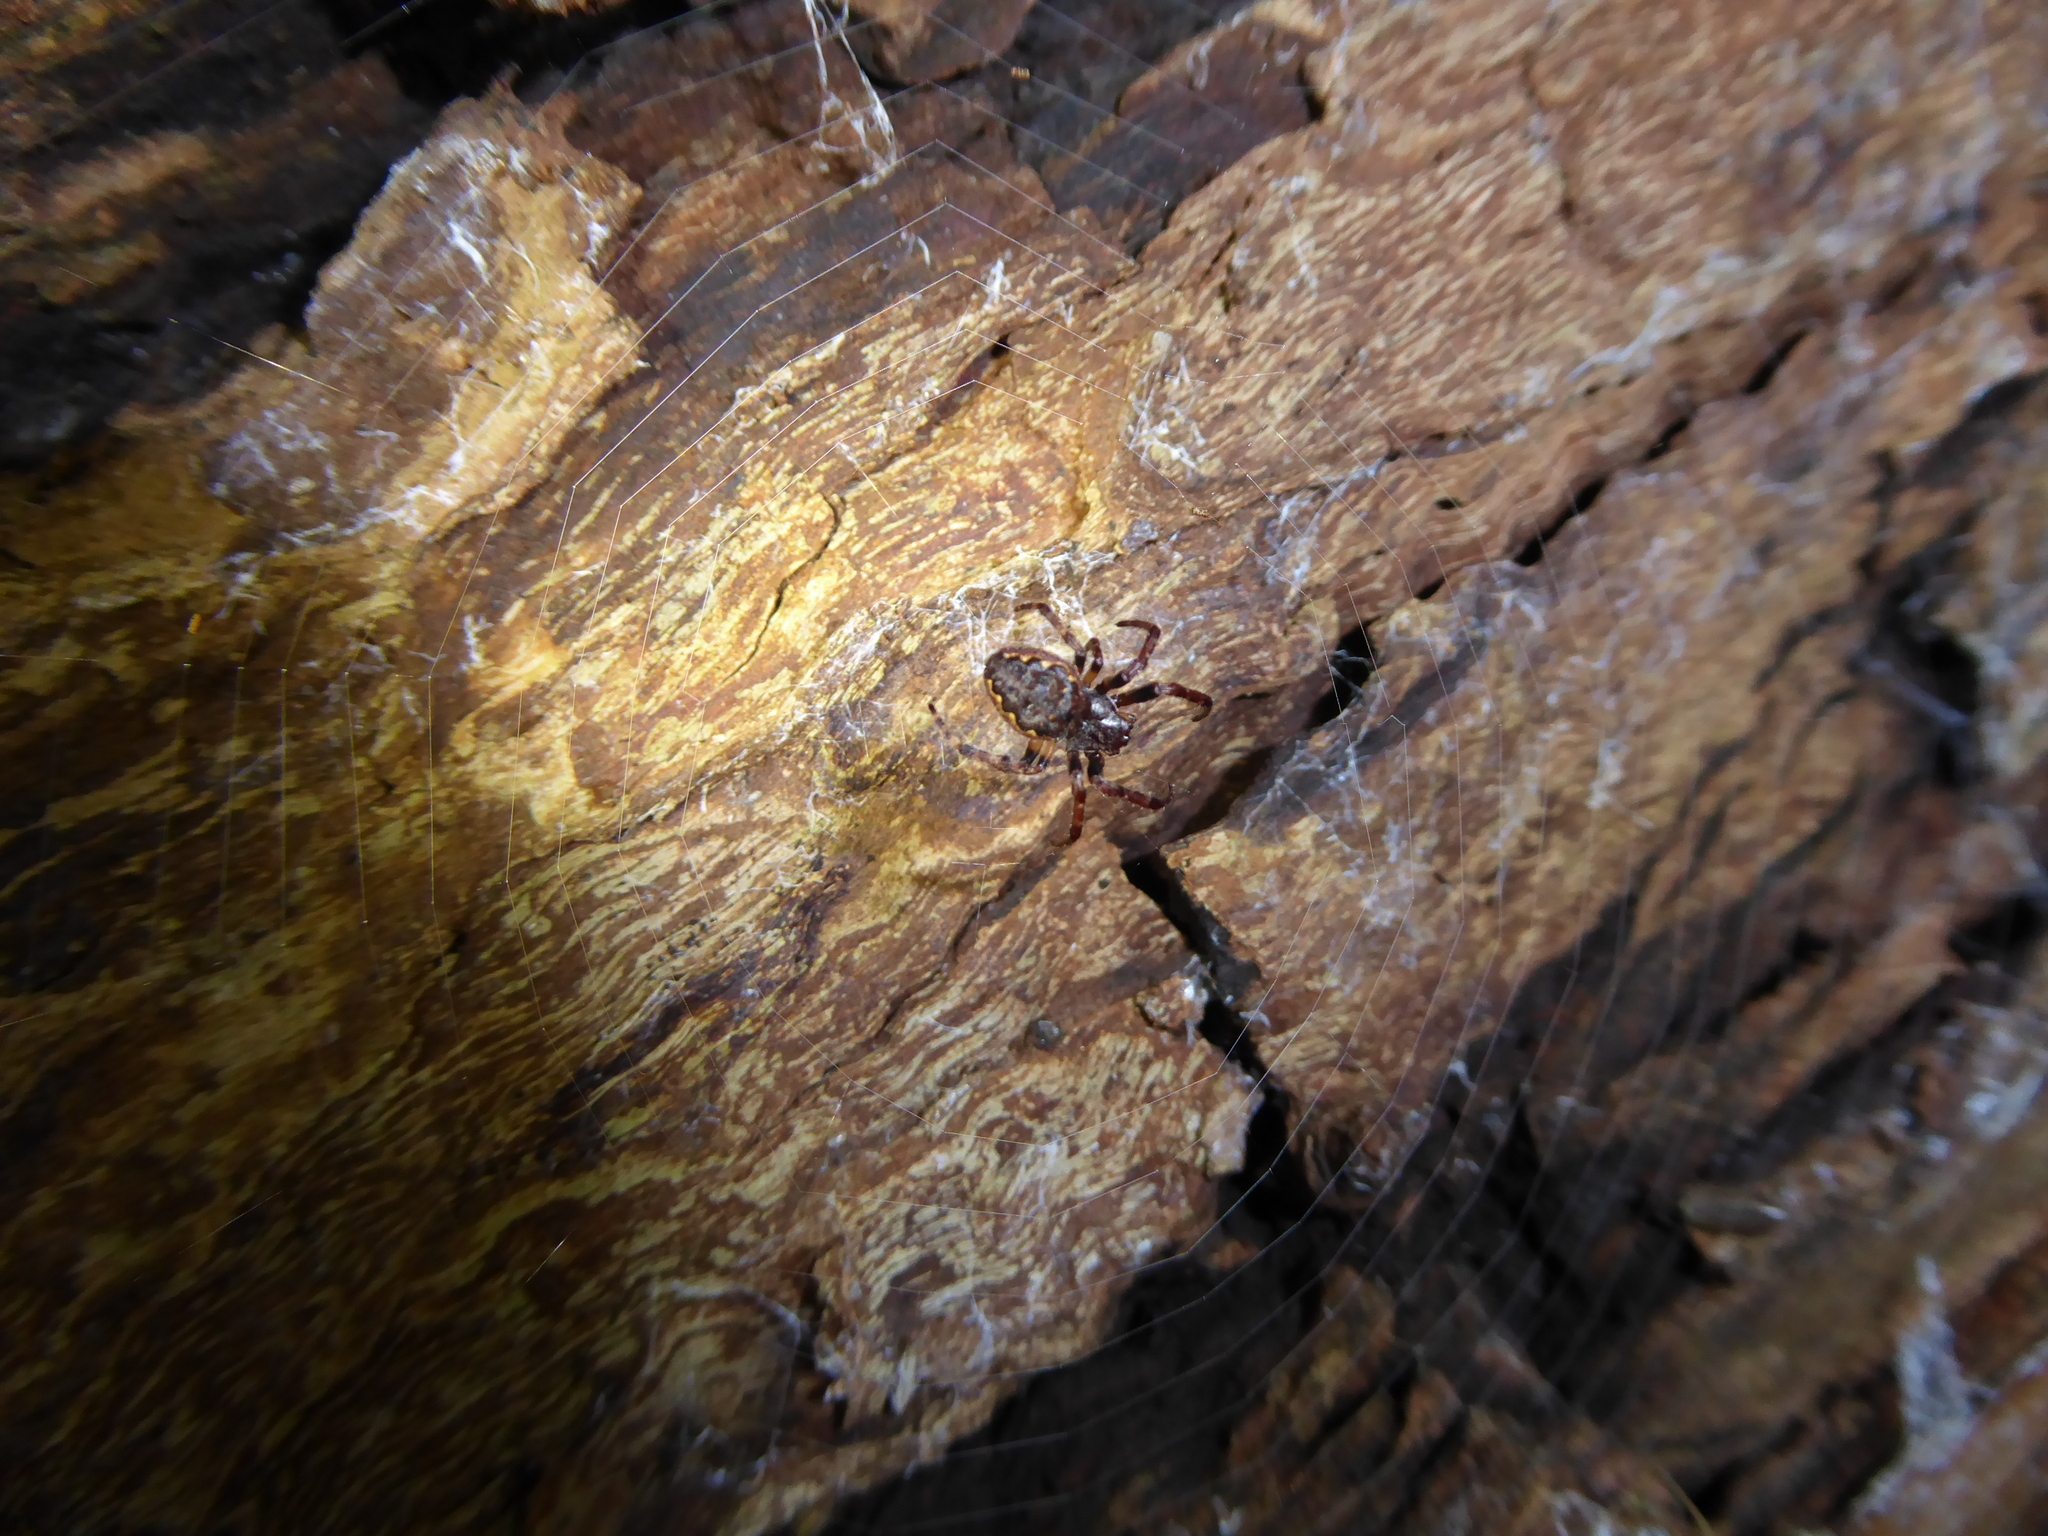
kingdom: Animalia
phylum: Arthropoda
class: Arachnida
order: Araneae
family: Araneidae
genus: Nuctenea
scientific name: Nuctenea umbratica
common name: Toad spider
